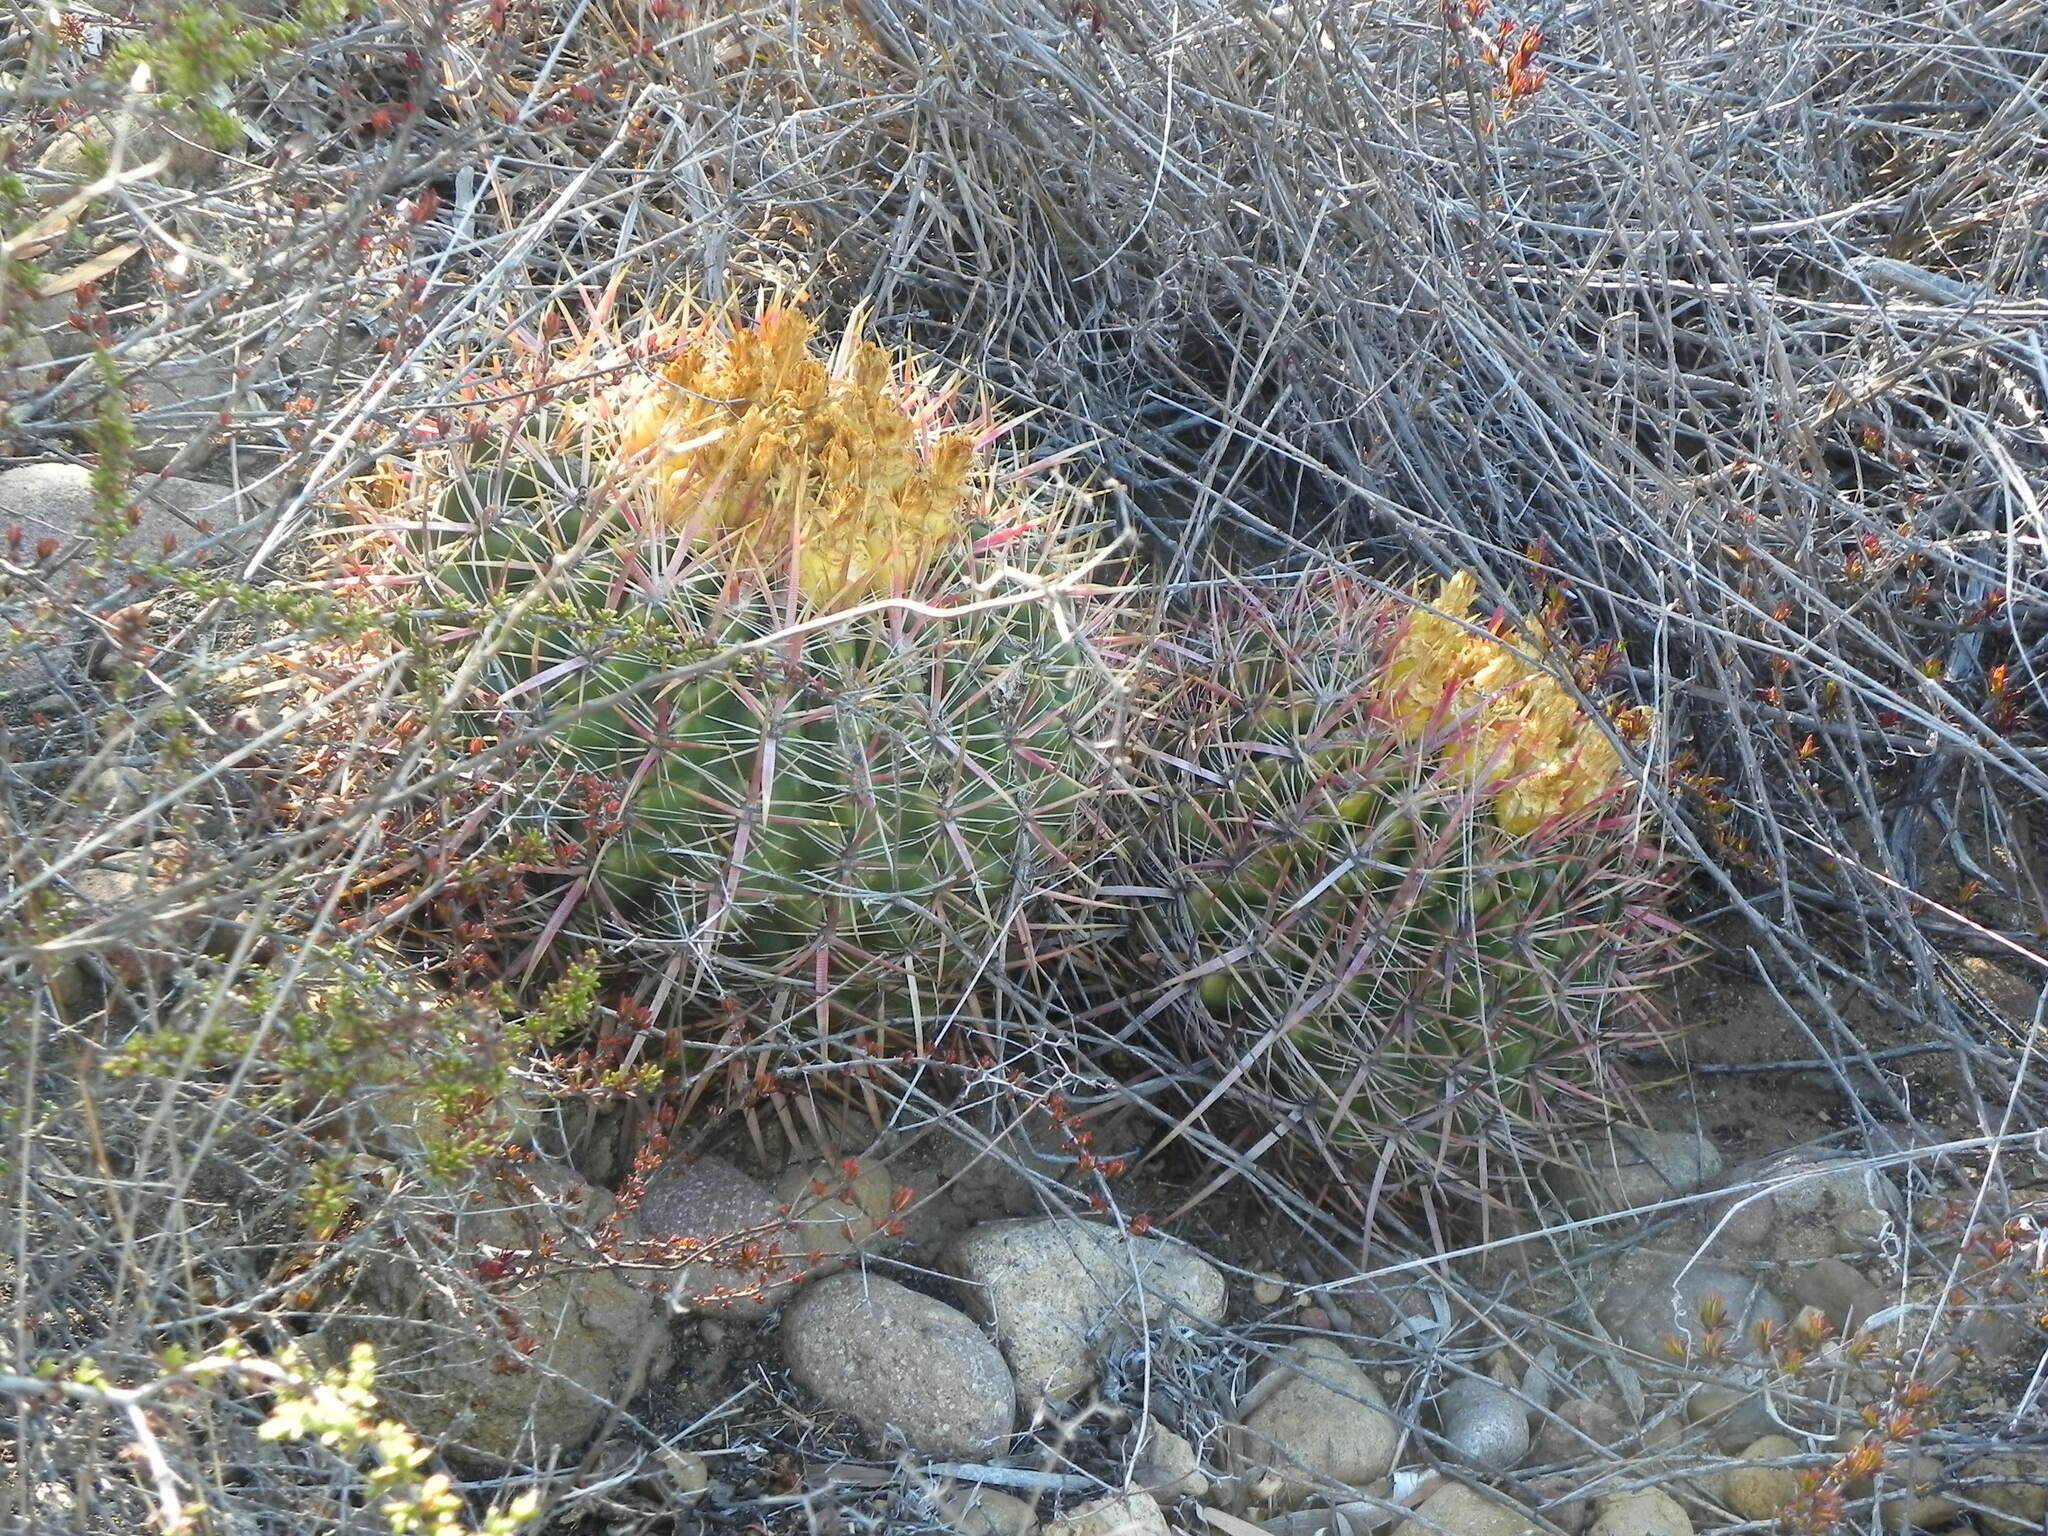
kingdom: Plantae
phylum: Tracheophyta
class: Magnoliopsida
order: Caryophyllales
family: Cactaceae
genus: Ferocactus
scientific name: Ferocactus viridescens
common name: San diego barrel cactus
